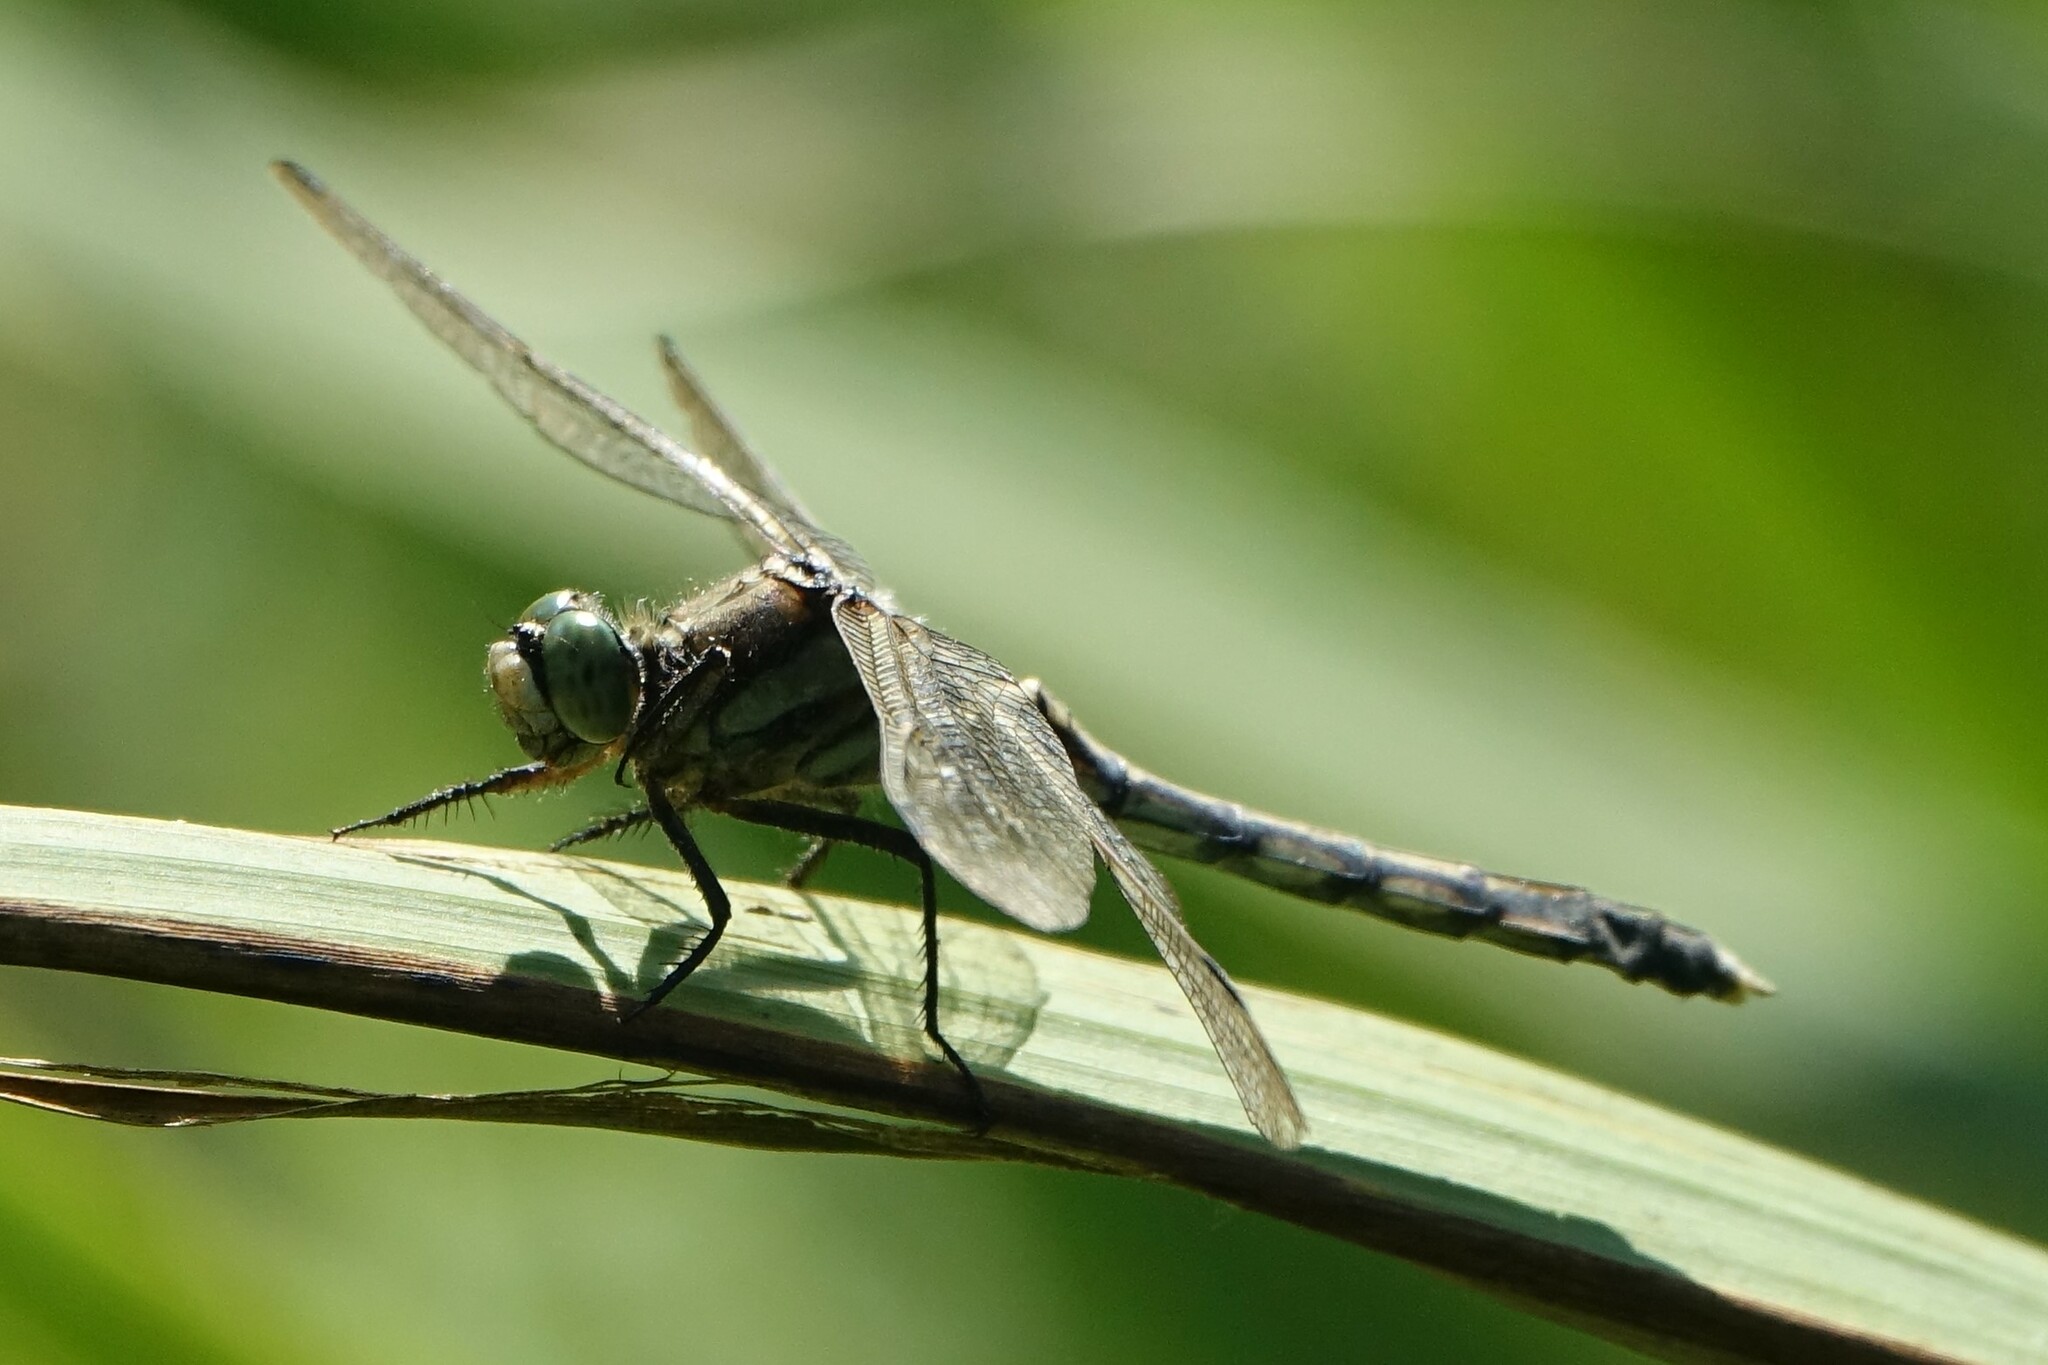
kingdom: Animalia
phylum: Arthropoda
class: Insecta
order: Odonata
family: Libellulidae
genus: Orthetrum
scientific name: Orthetrum albistylum
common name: White-tailed skimmer
